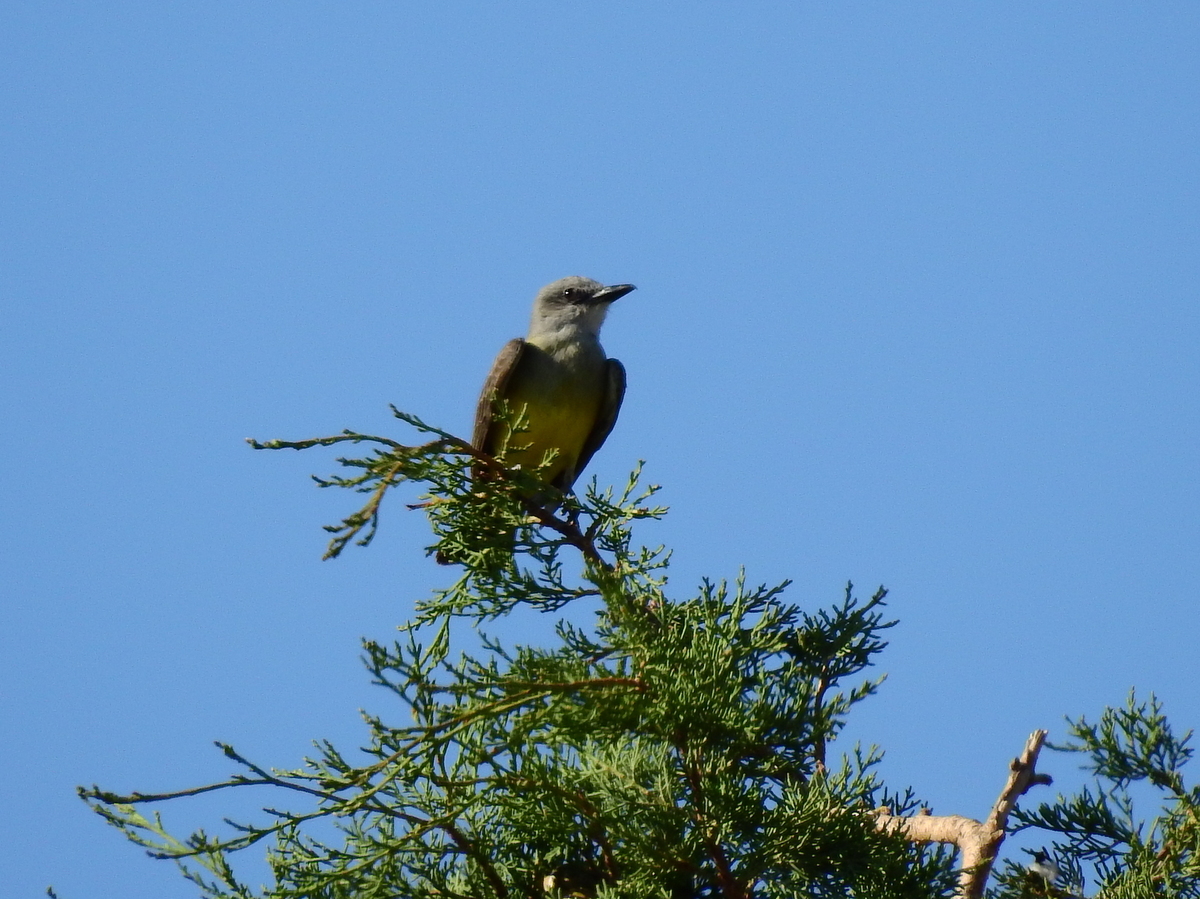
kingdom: Animalia
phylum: Chordata
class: Aves
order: Passeriformes
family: Tyrannidae
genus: Tyrannus
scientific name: Tyrannus melancholicus
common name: Tropical kingbird
